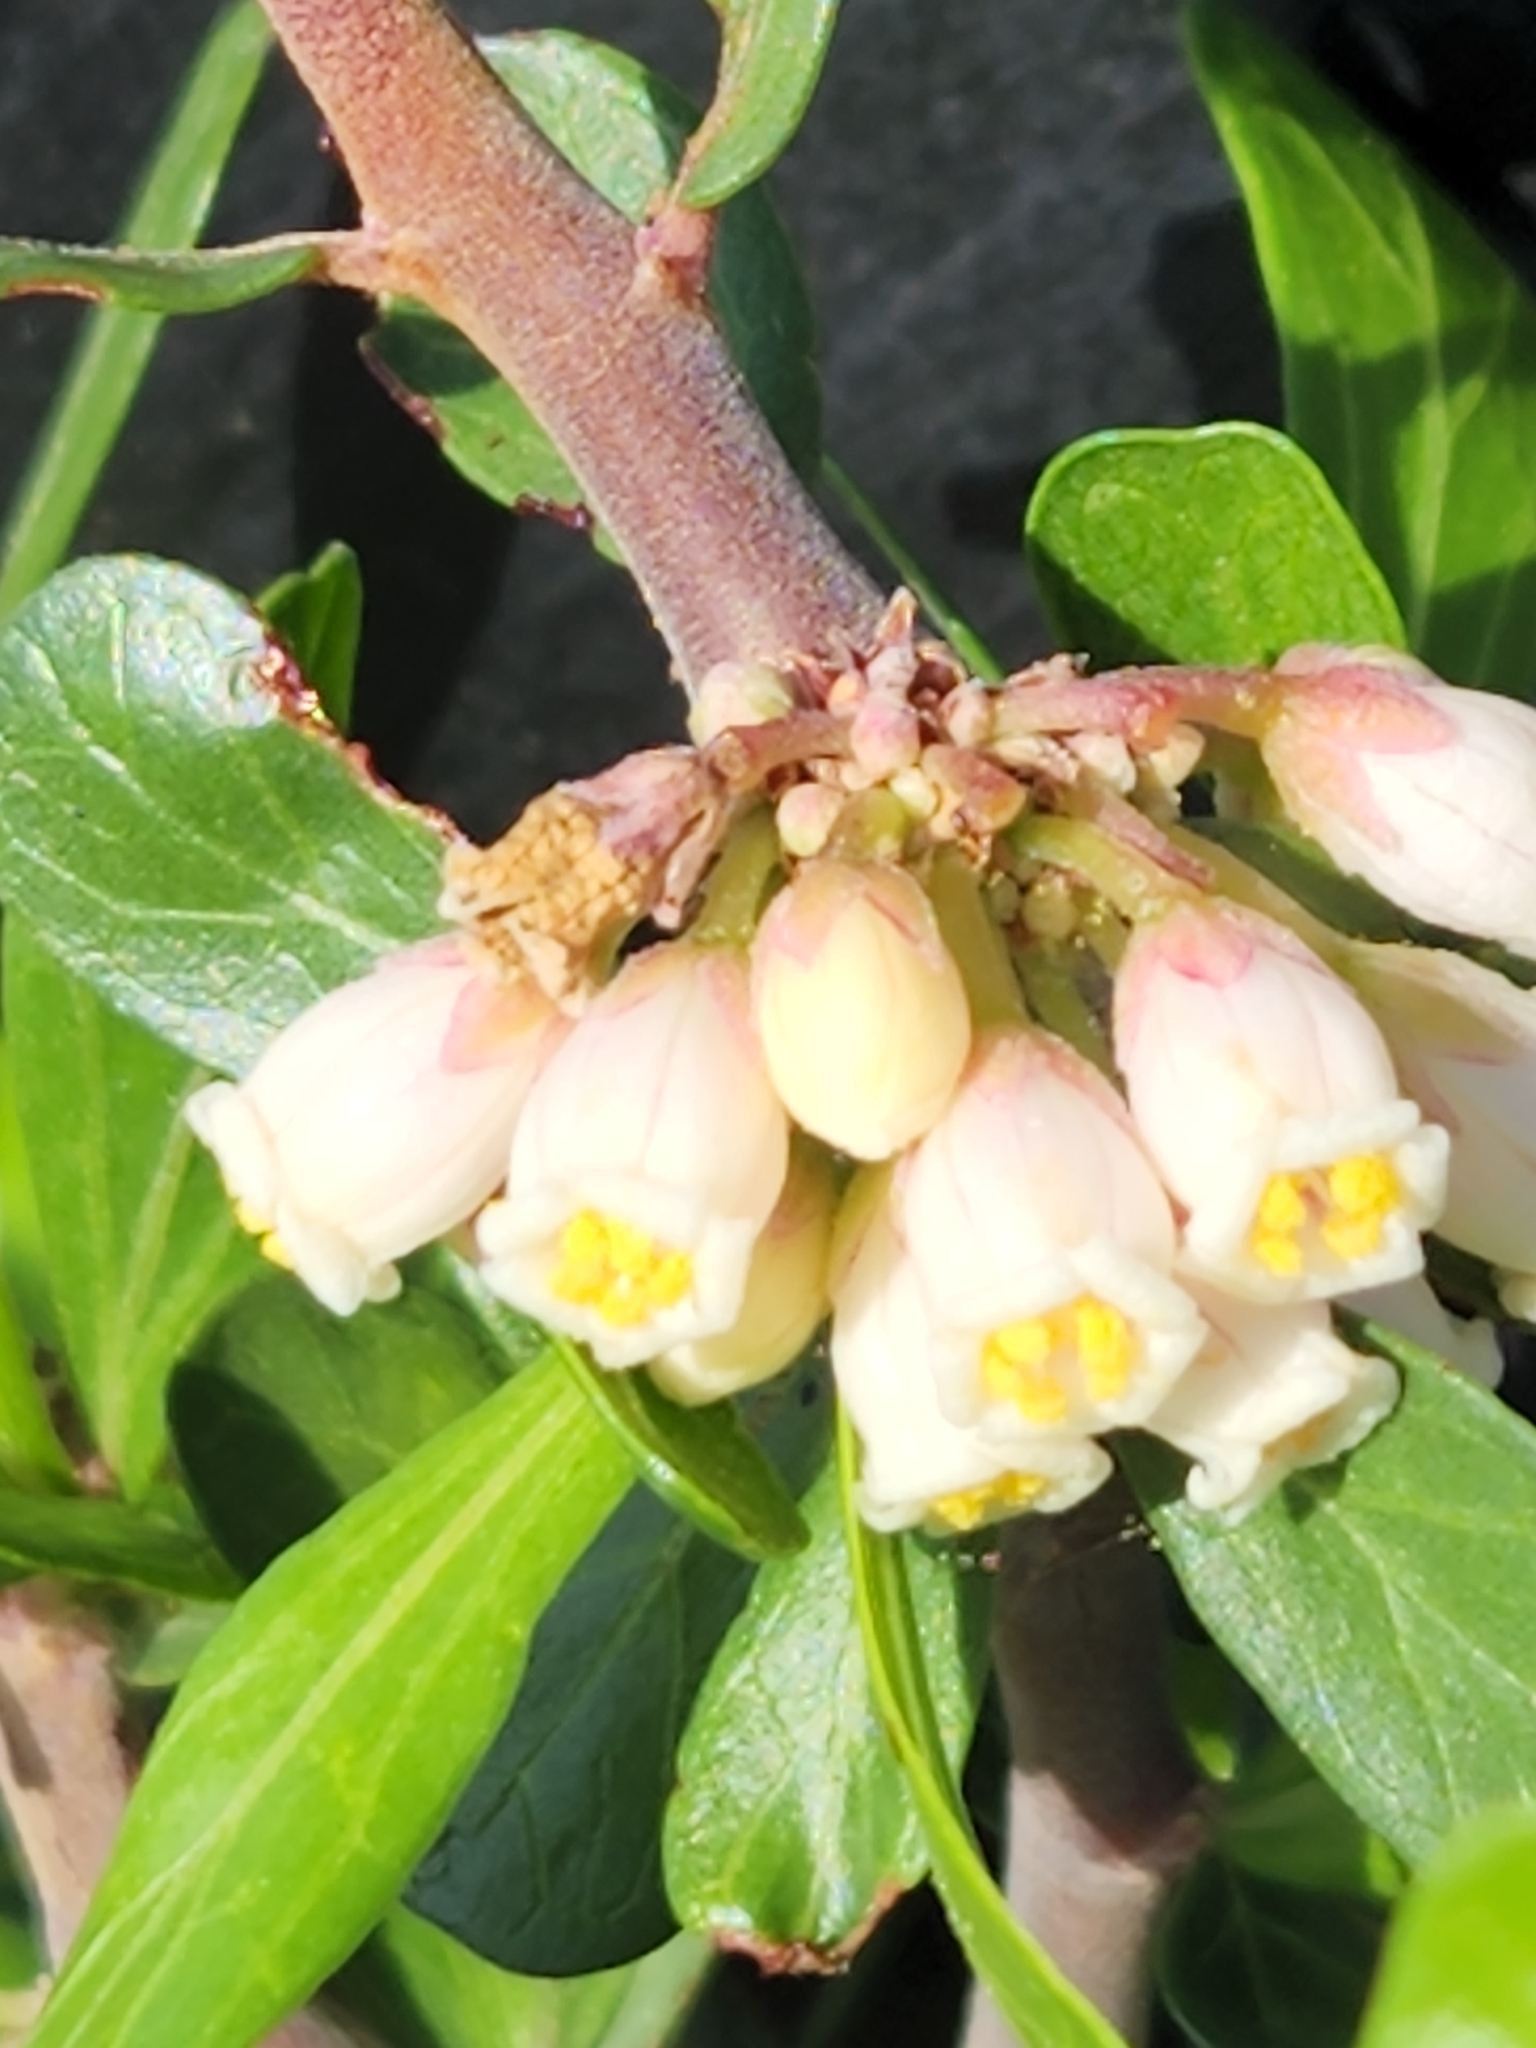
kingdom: Plantae
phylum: Tracheophyta
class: Magnoliopsida
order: Malpighiales
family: Euphorbiaceae
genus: Jatropha
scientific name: Jatropha dioica
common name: Leatherstem
